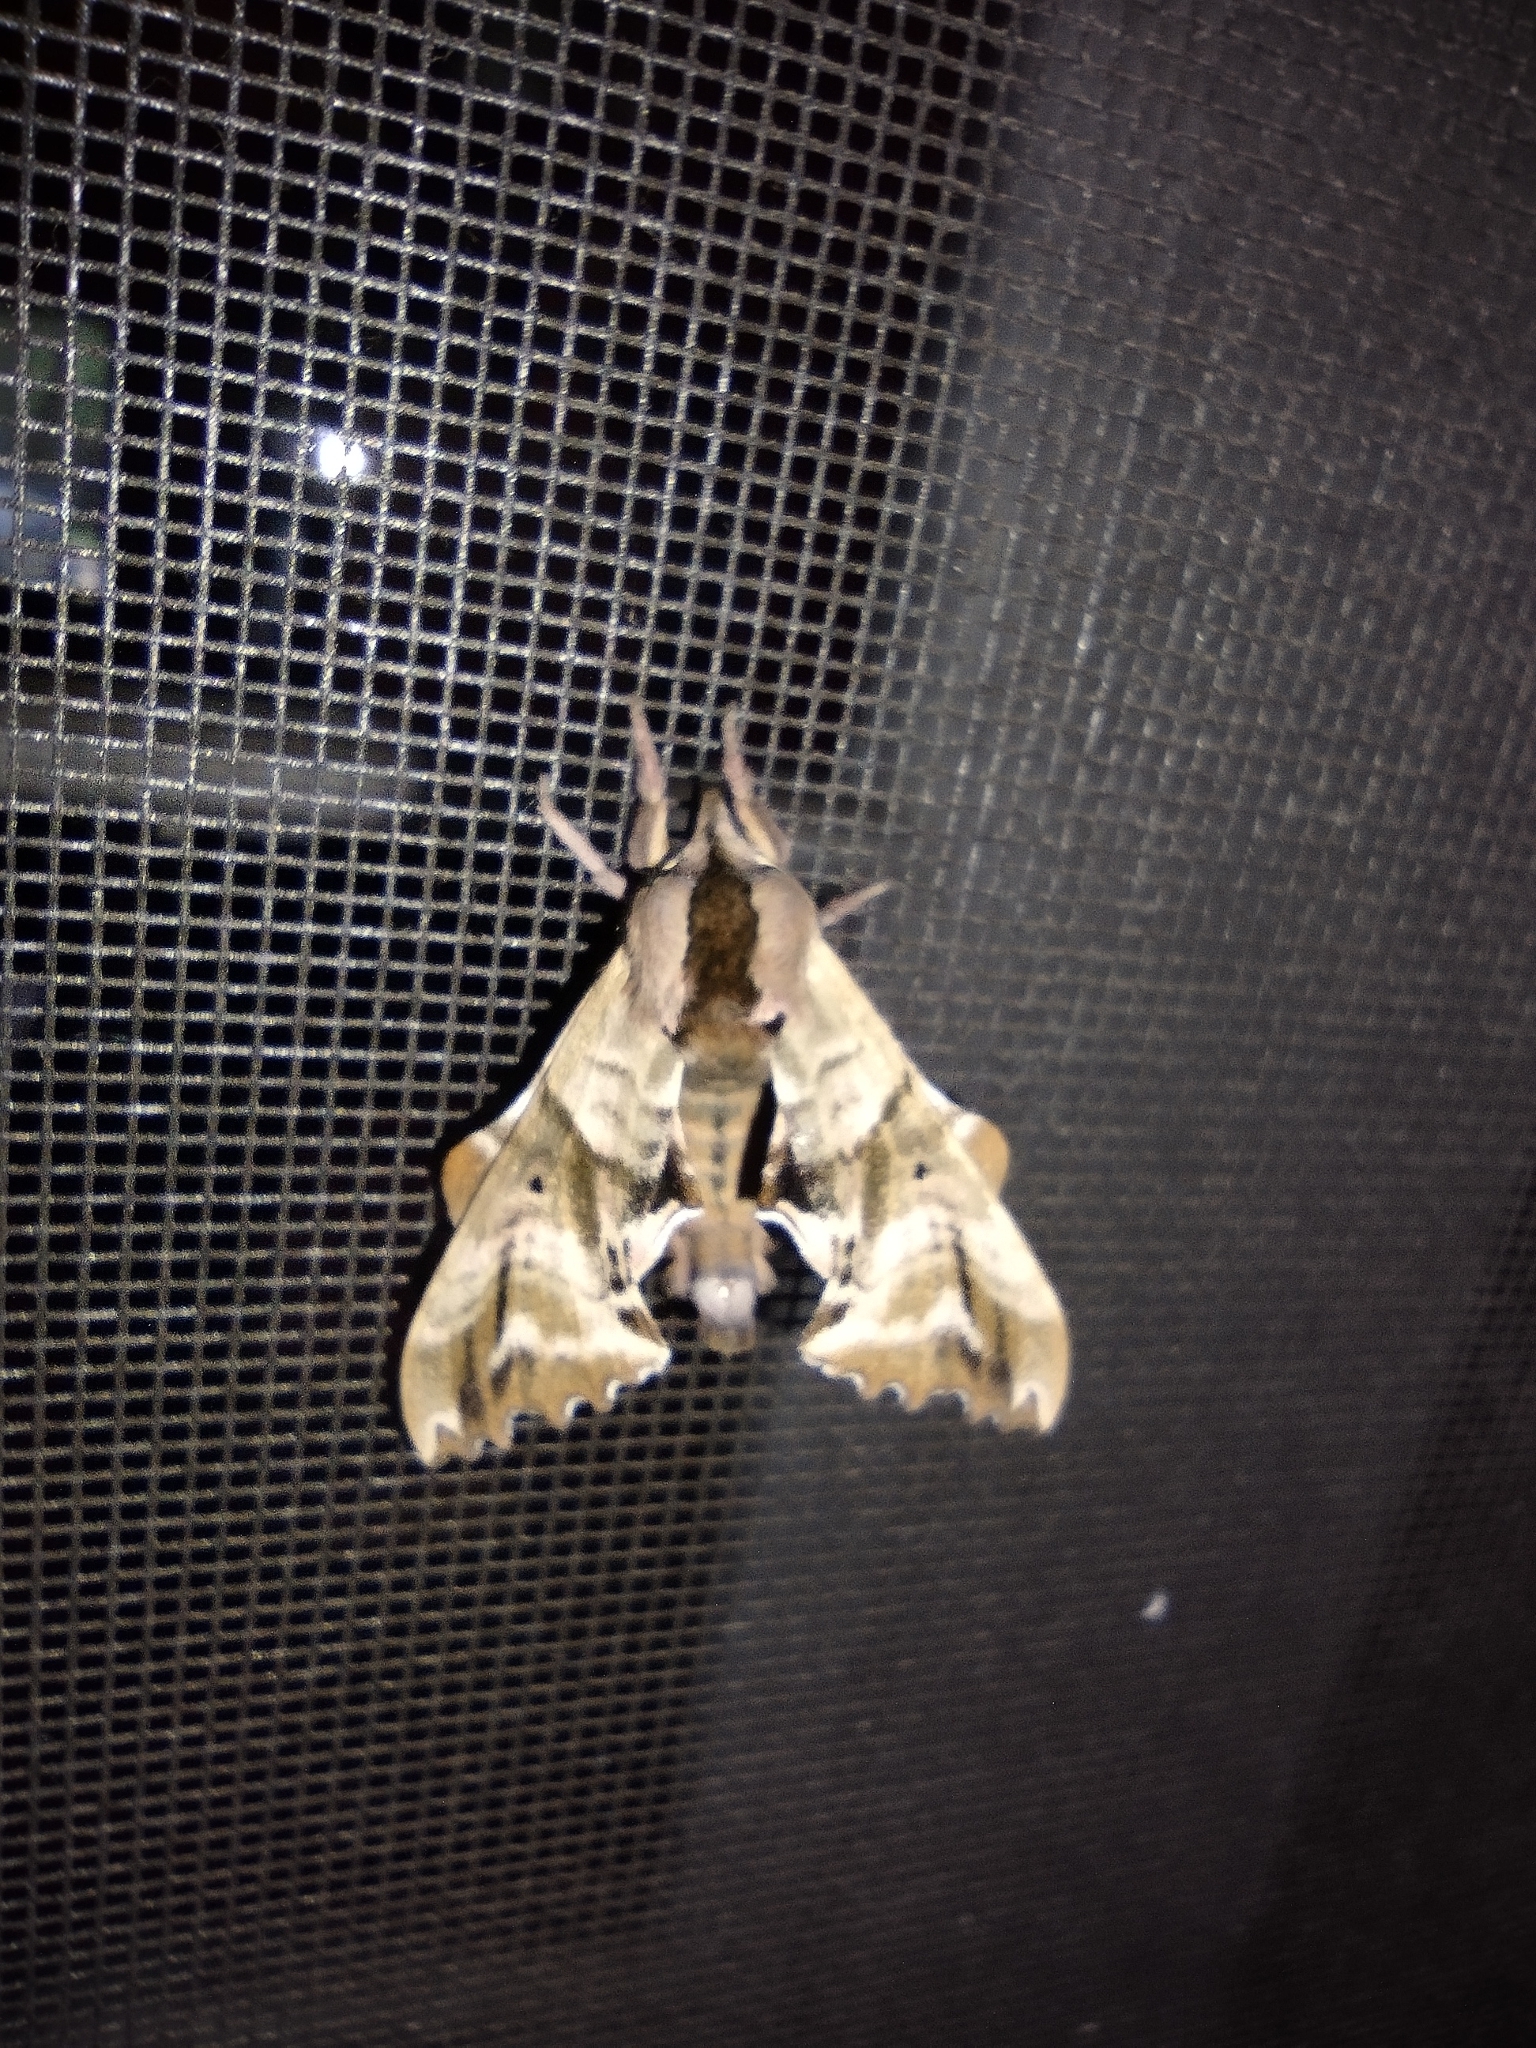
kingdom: Animalia
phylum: Arthropoda
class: Insecta
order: Lepidoptera
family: Sphingidae
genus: Paonias
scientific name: Paonias excaecata
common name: Blind-eyed sphinx
